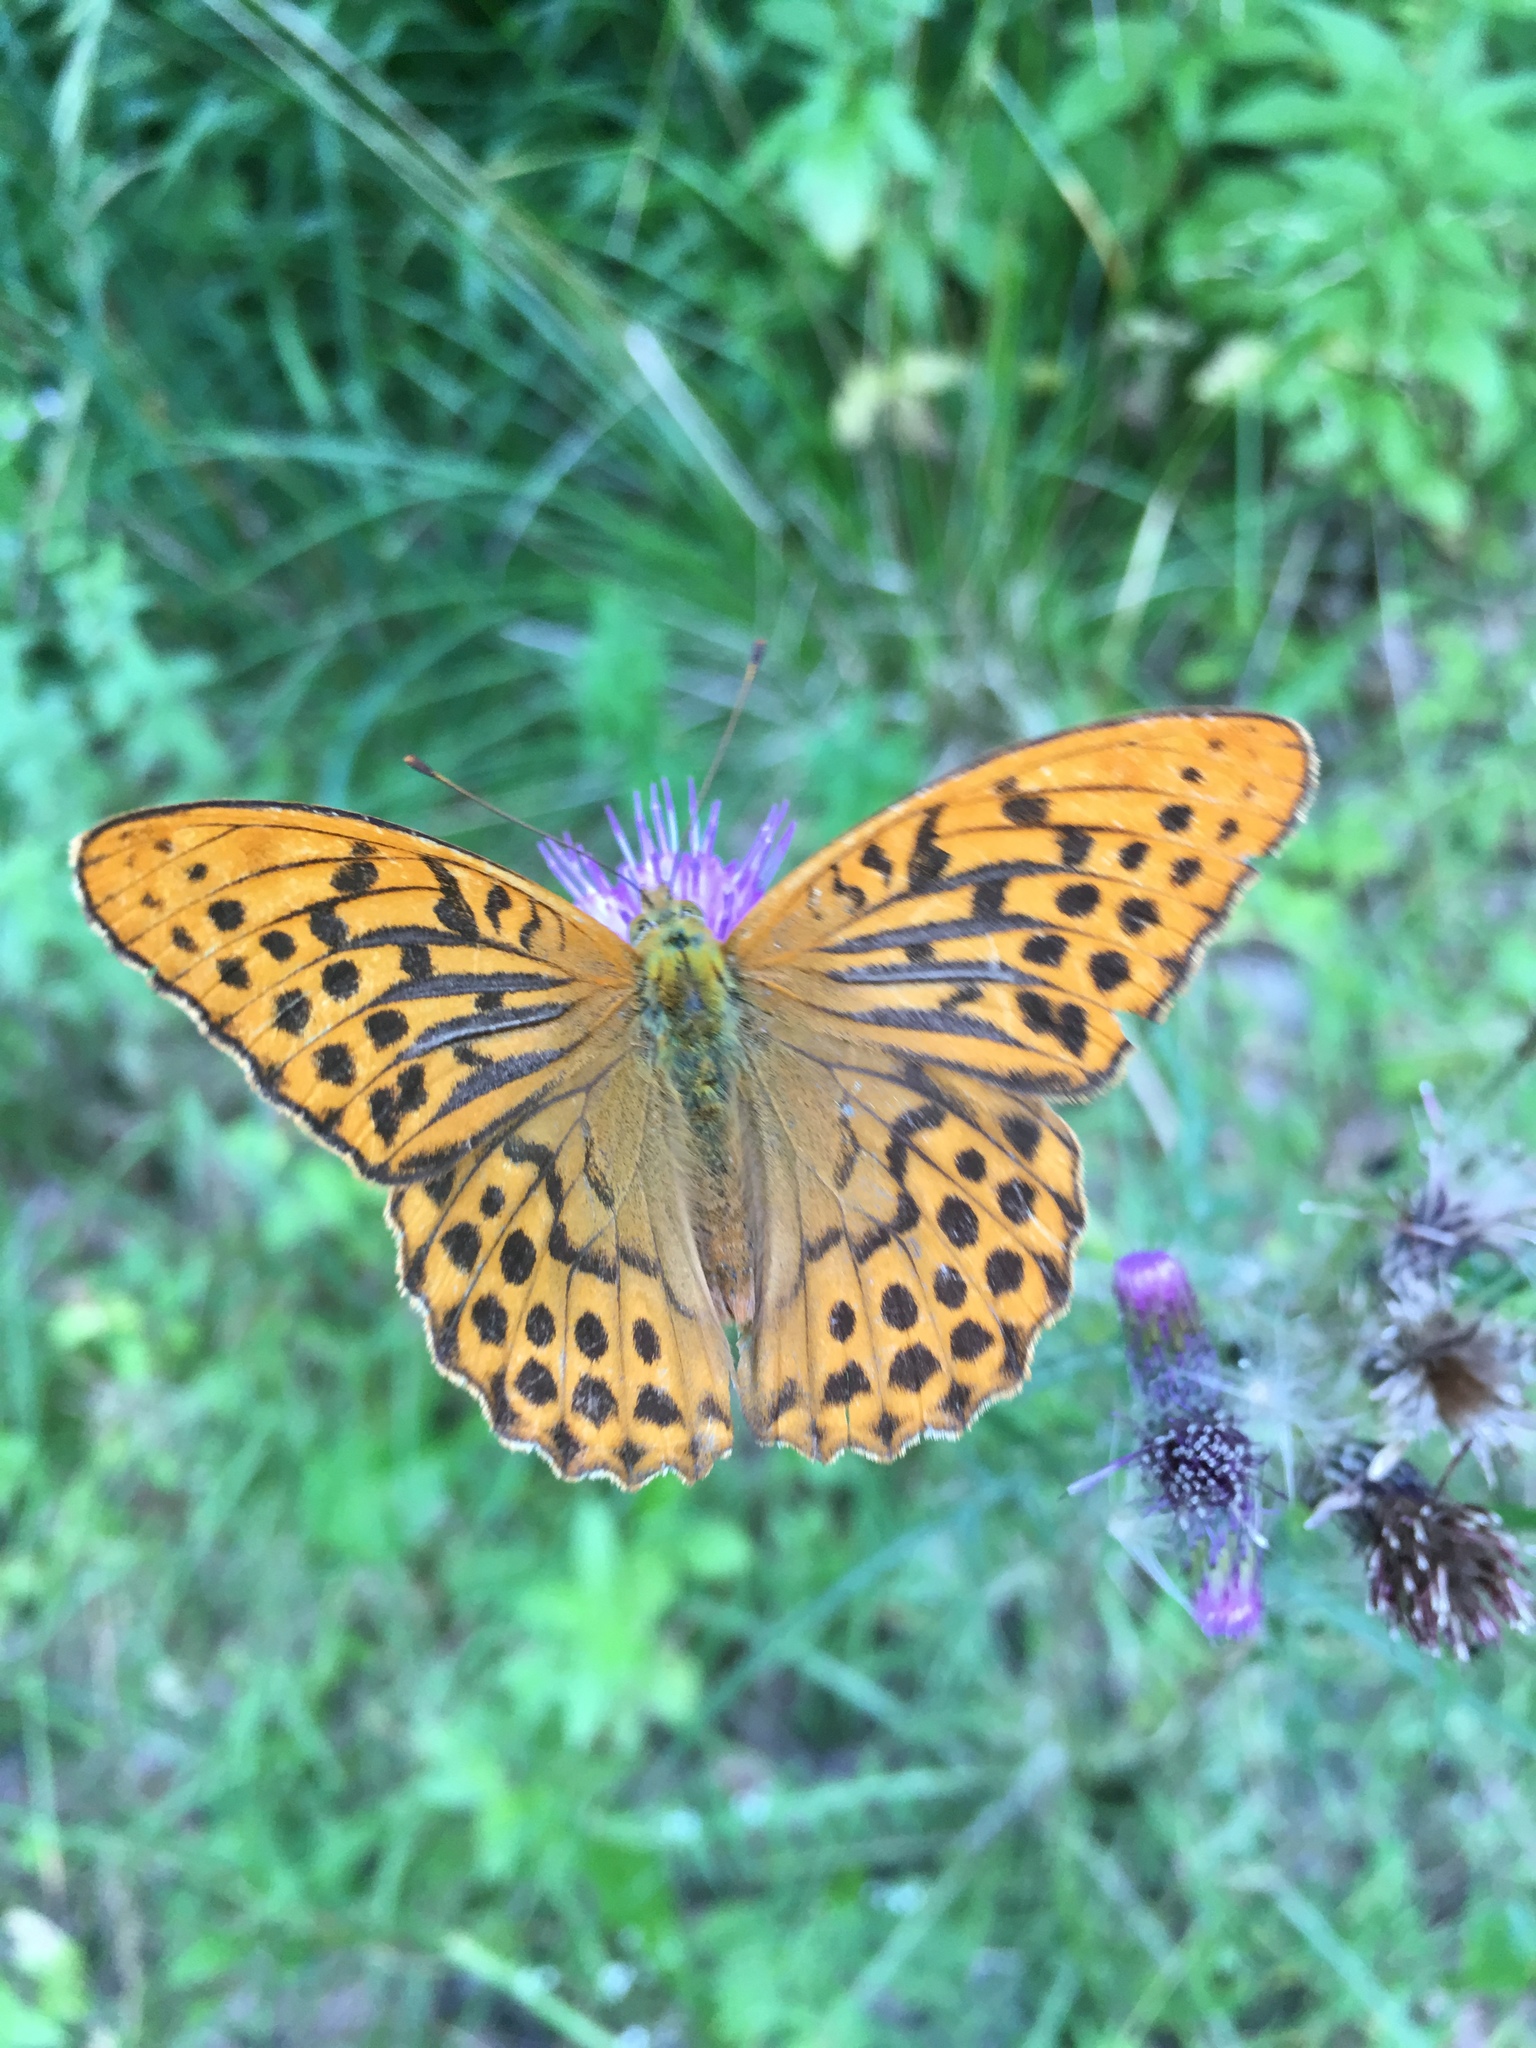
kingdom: Animalia
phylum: Arthropoda
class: Insecta
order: Lepidoptera
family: Nymphalidae
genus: Argynnis
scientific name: Argynnis paphia
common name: Silver-washed fritillary
